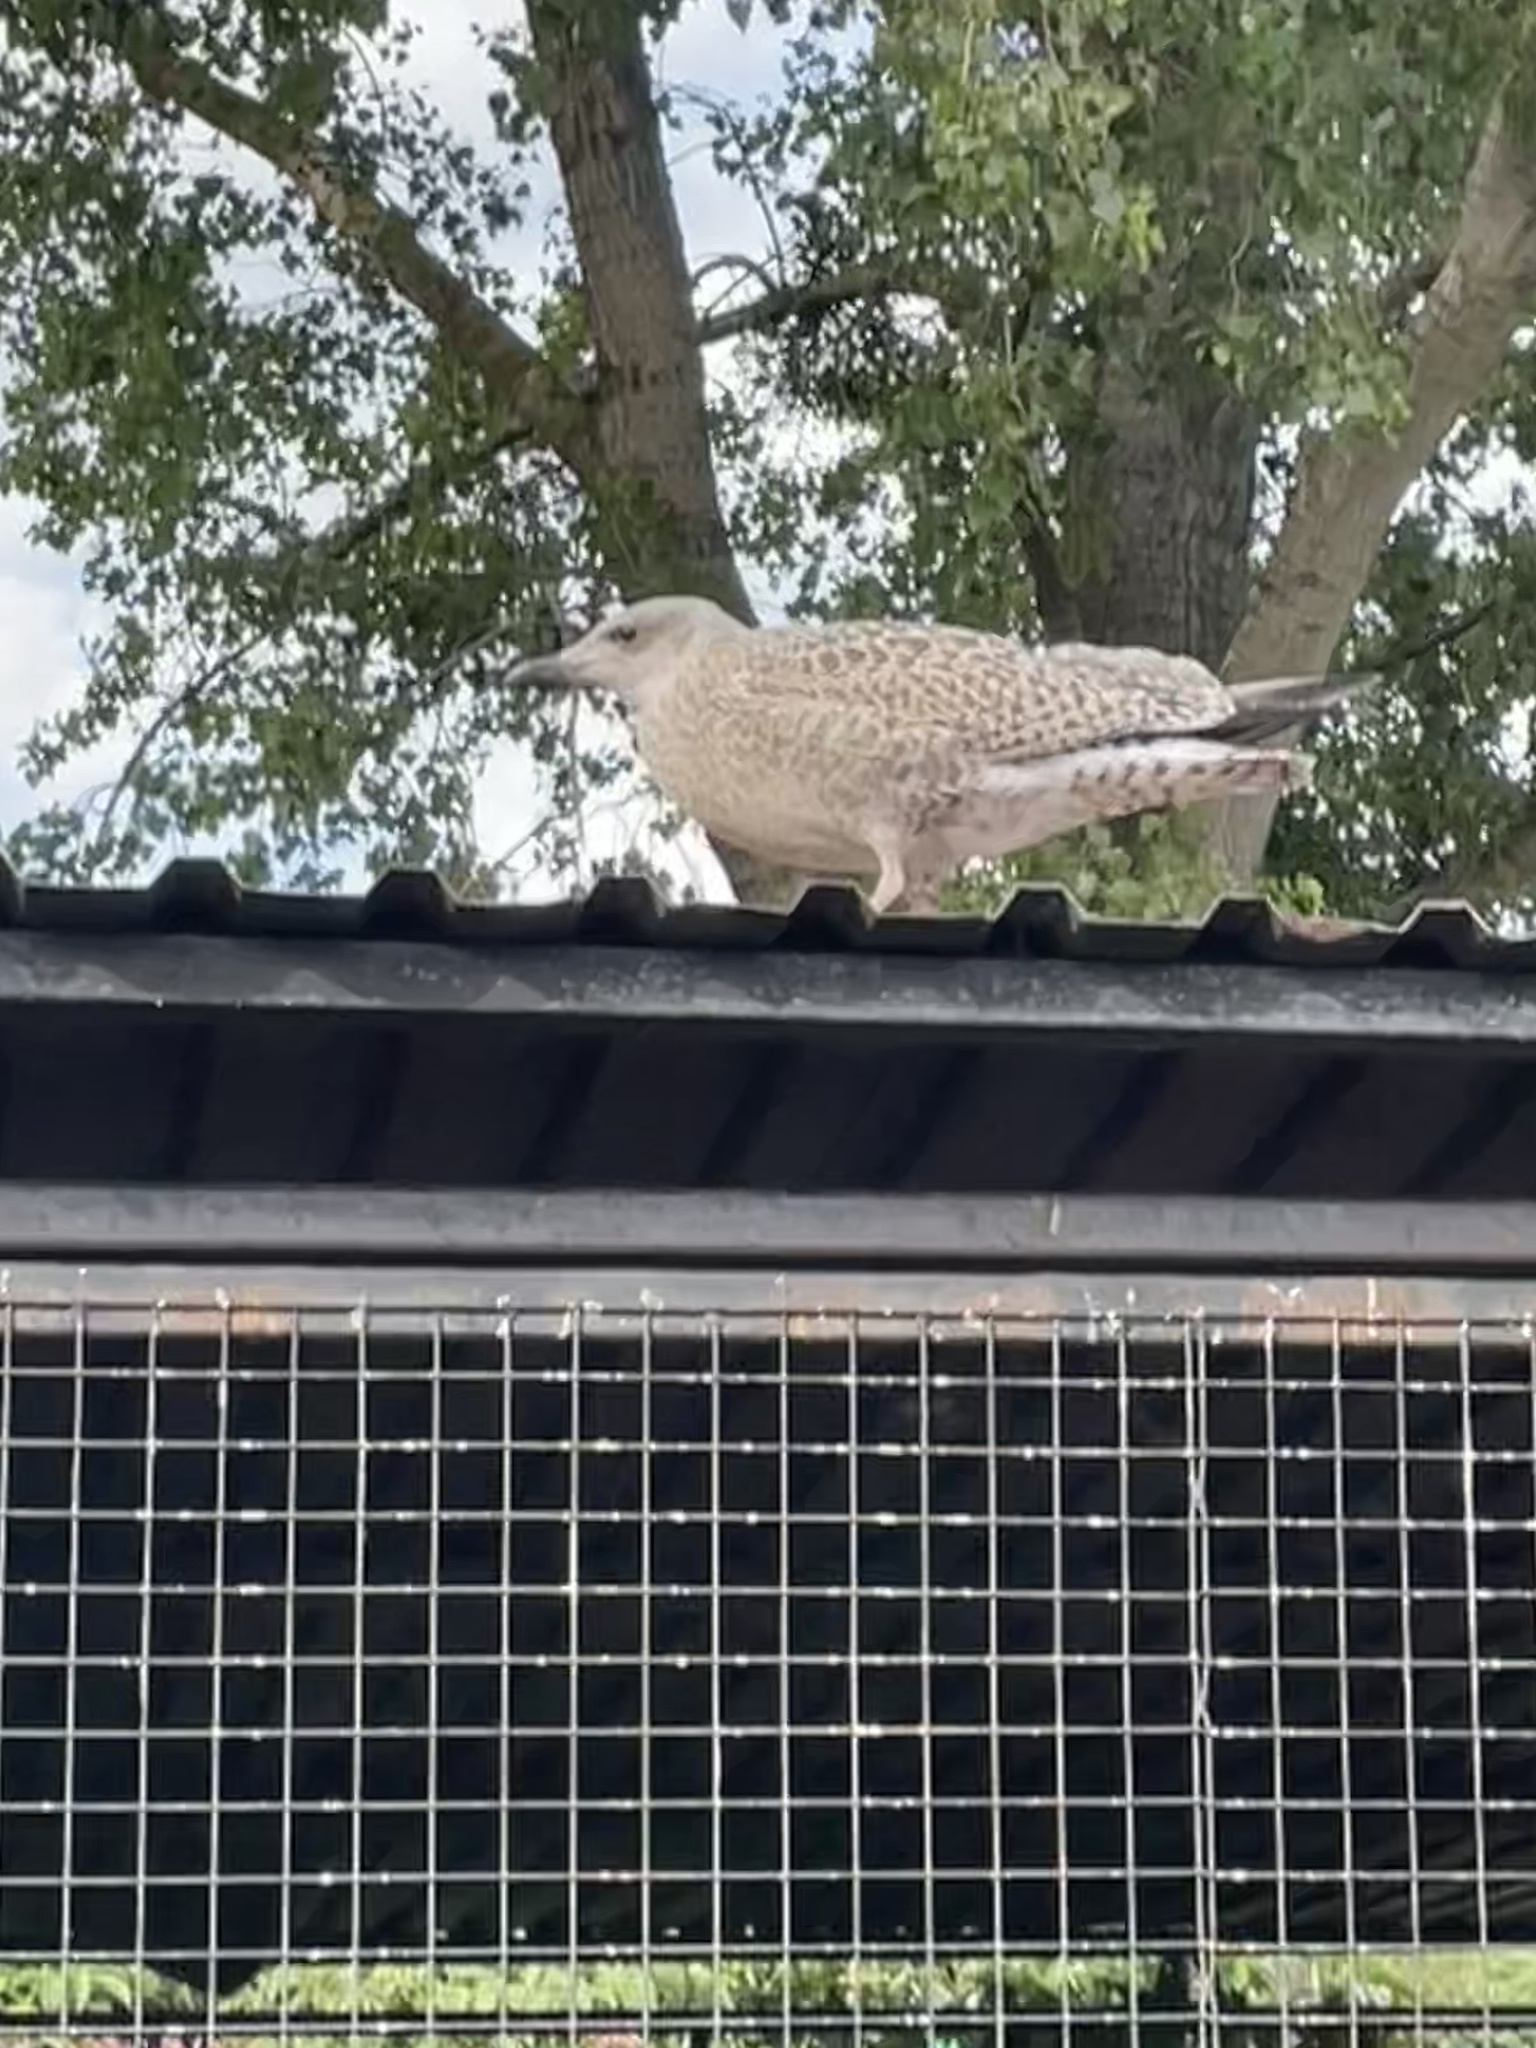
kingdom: Animalia
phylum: Chordata
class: Aves
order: Charadriiformes
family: Laridae
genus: Larus
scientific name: Larus argentatus
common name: Herring gull
